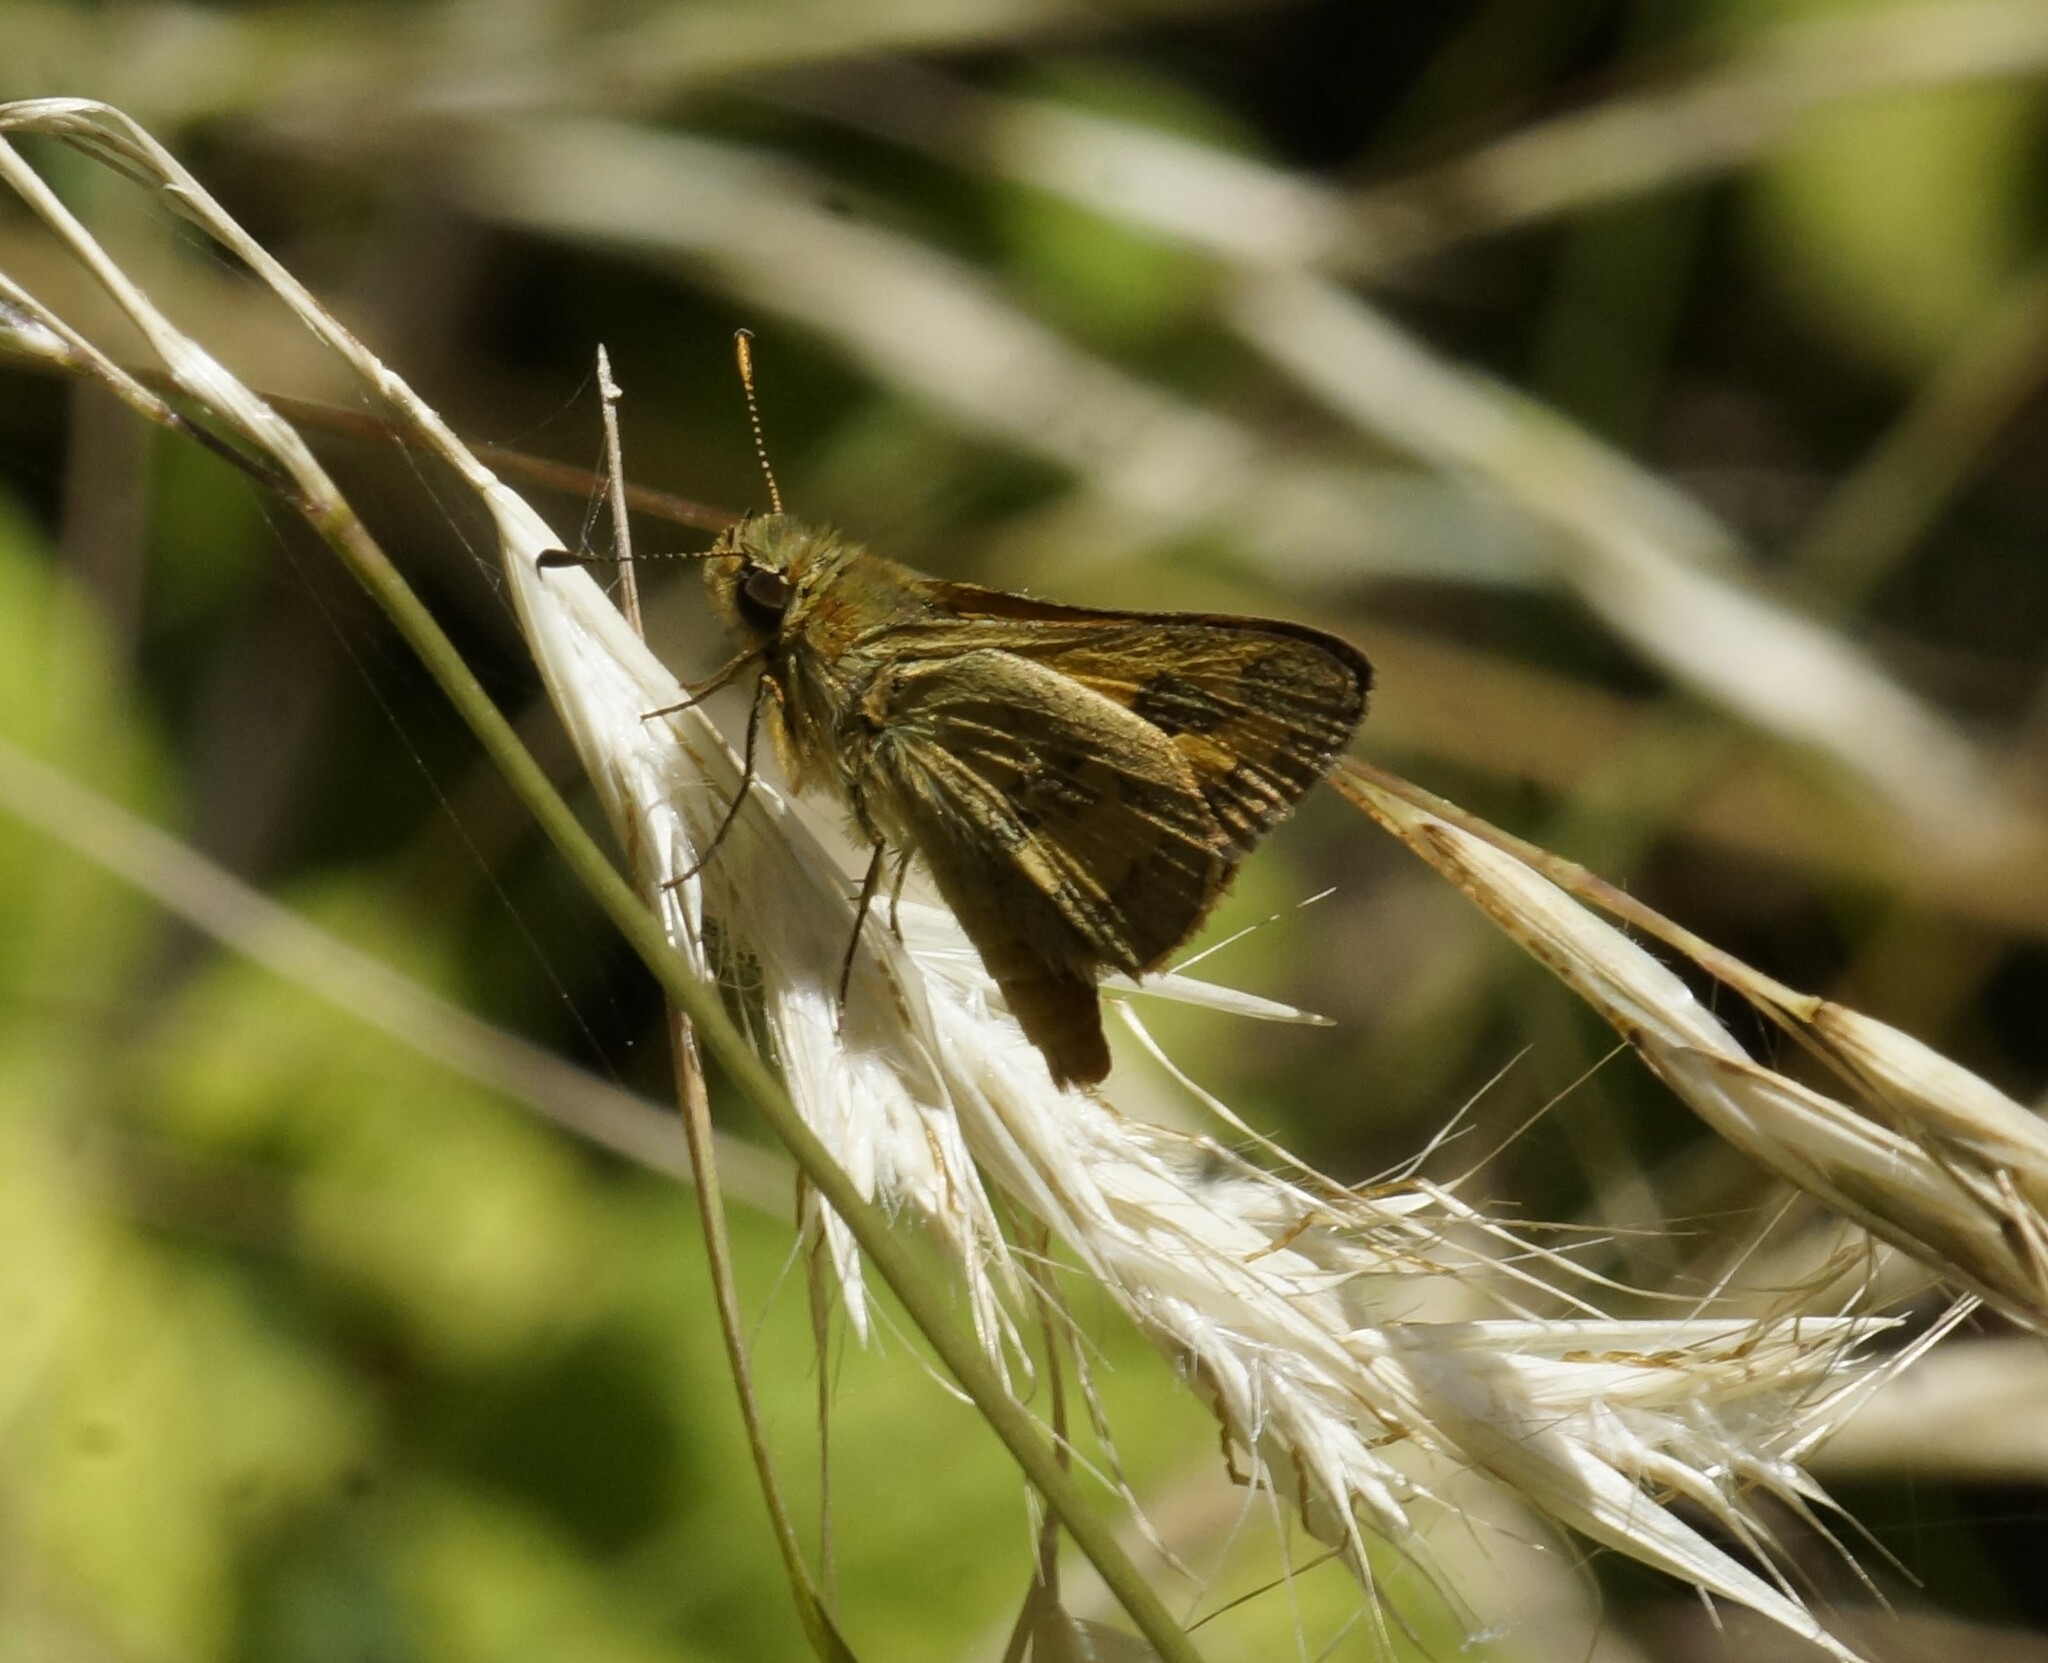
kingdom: Animalia
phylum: Arthropoda
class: Insecta
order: Lepidoptera
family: Hesperiidae
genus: Ocybadistes
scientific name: Ocybadistes walkeri
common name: Yellow-banded dart
